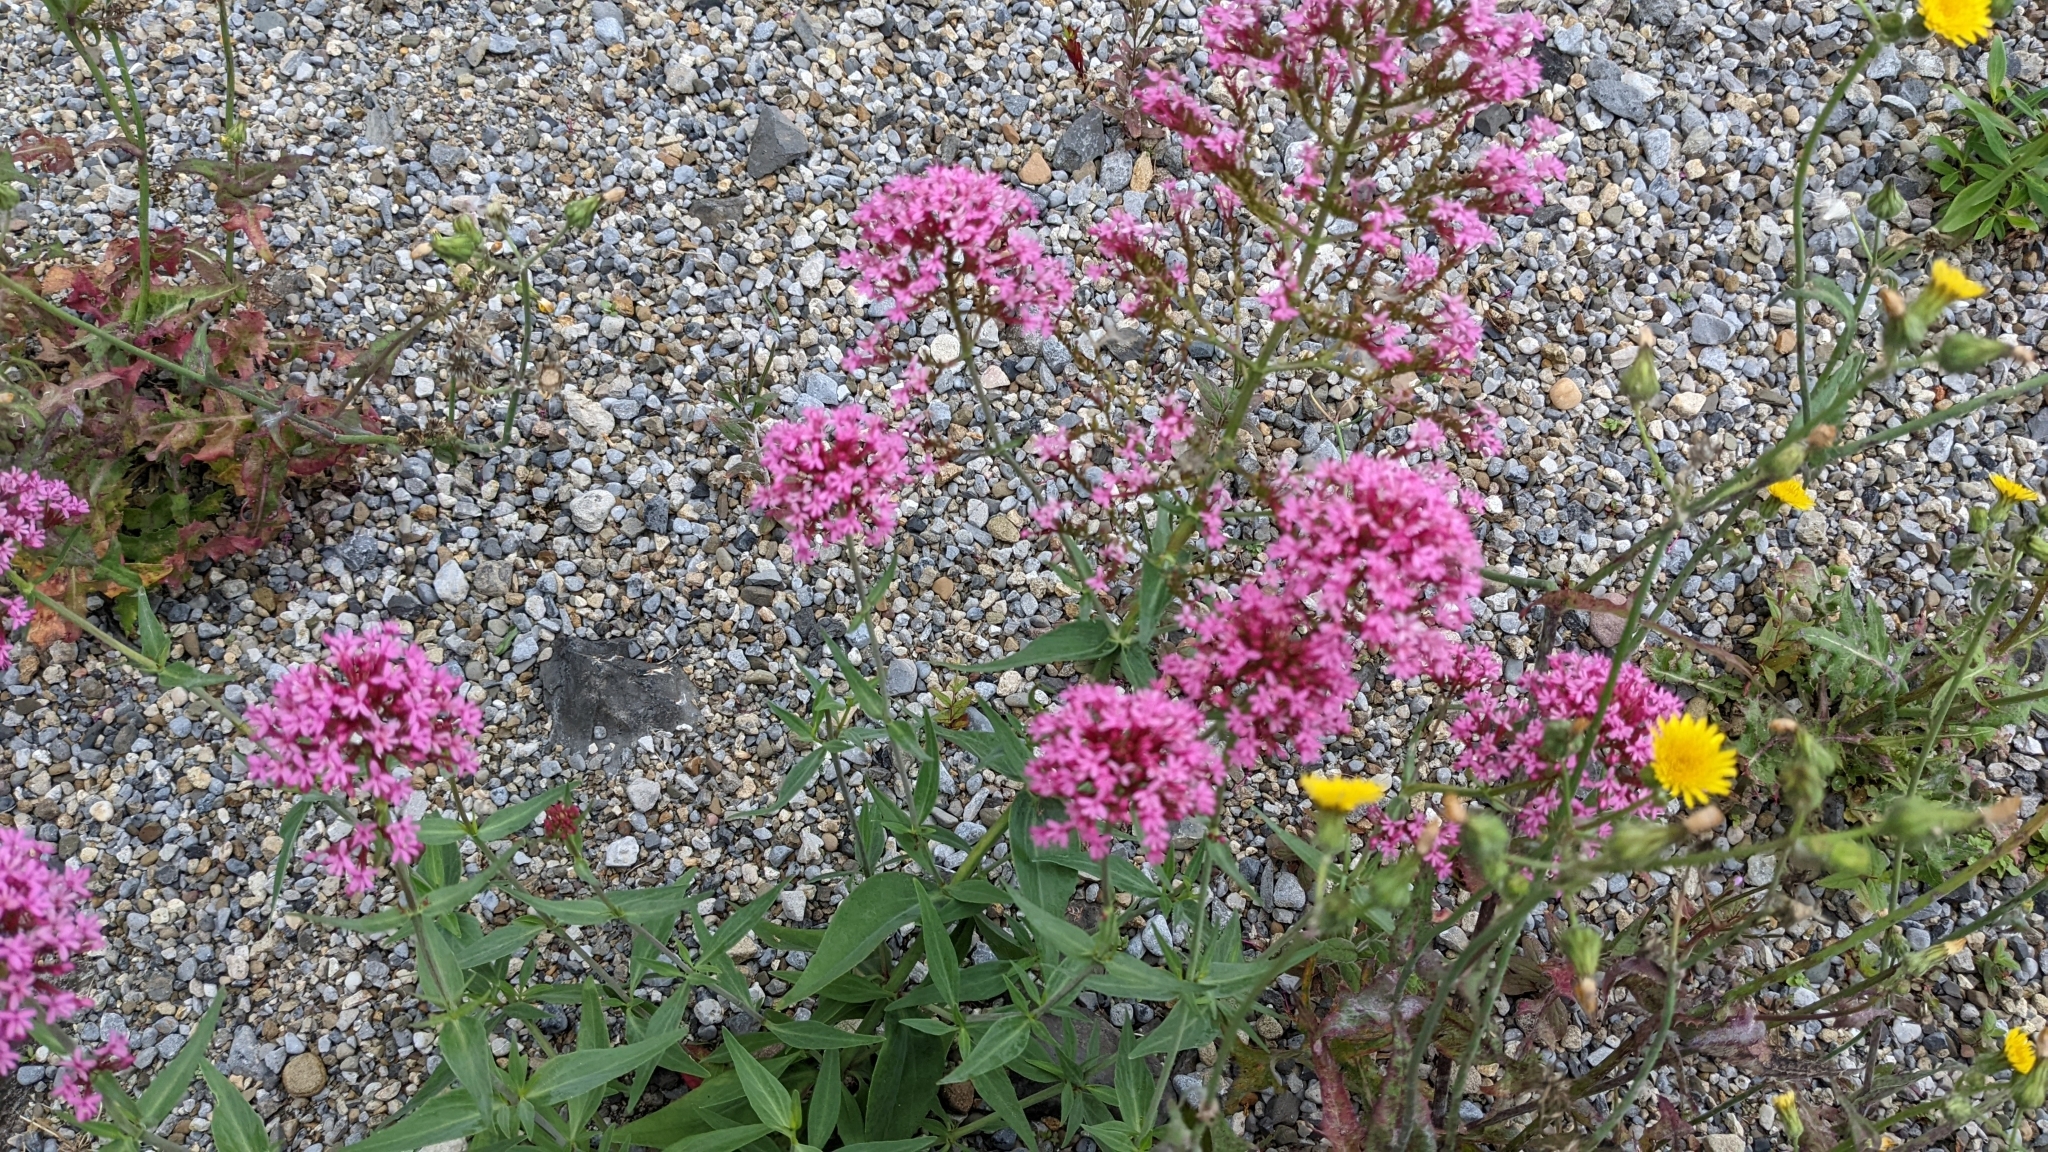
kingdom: Plantae
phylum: Tracheophyta
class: Magnoliopsida
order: Dipsacales
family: Caprifoliaceae
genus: Centranthus
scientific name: Centranthus ruber
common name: Red valerian
